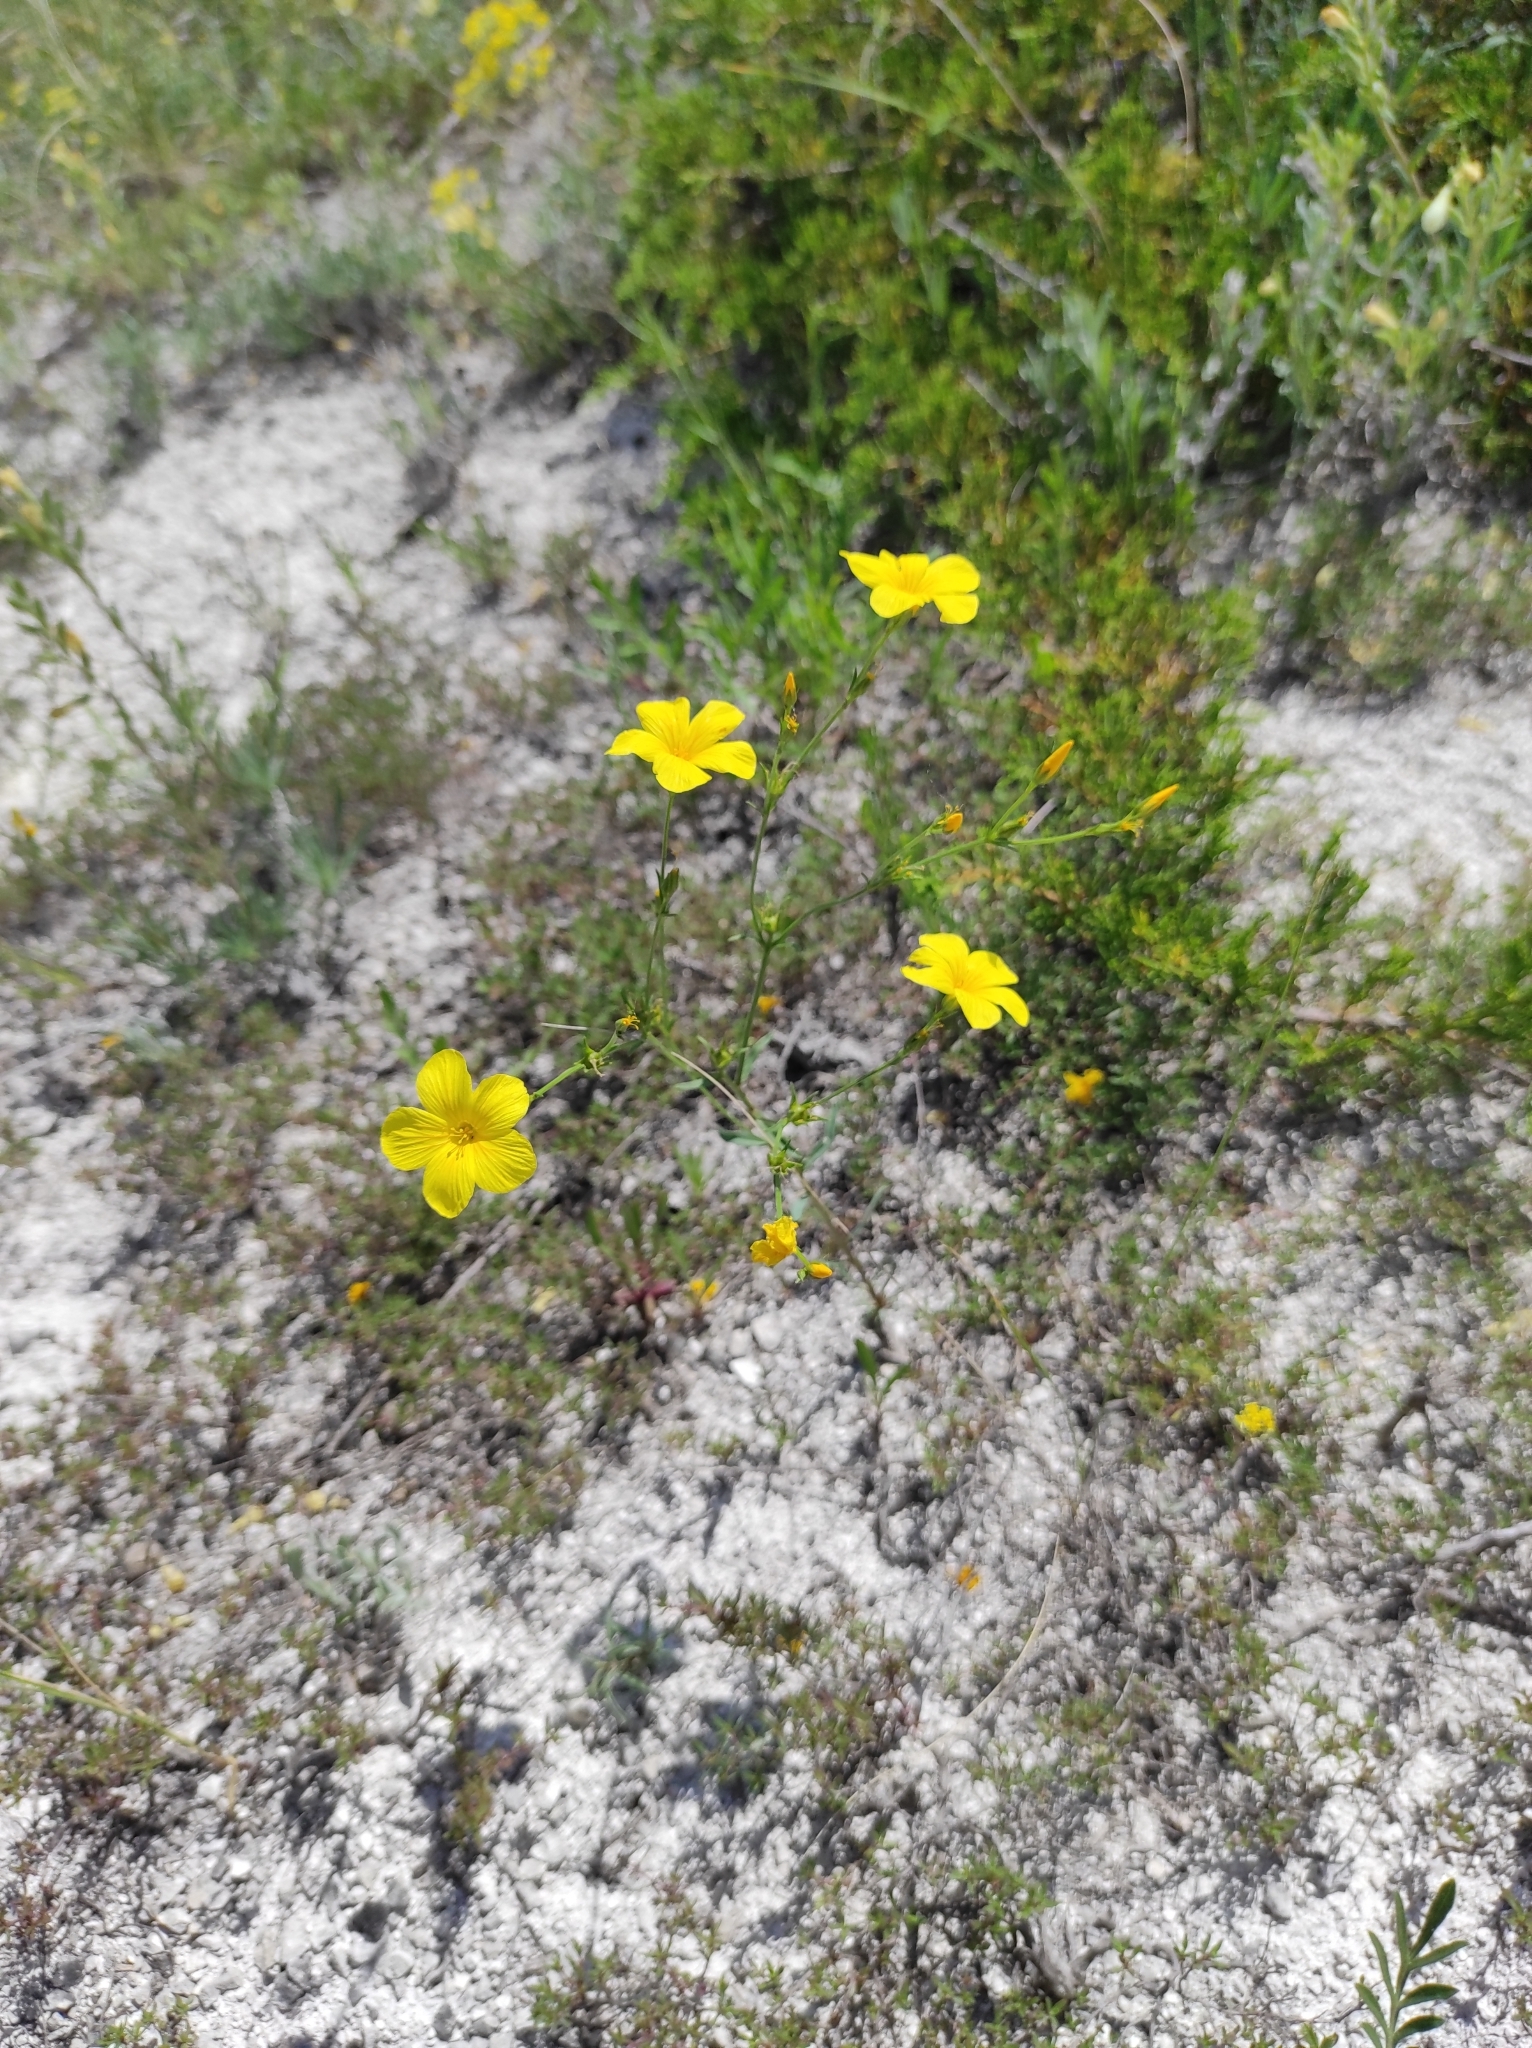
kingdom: Plantae
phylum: Tracheophyta
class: Magnoliopsida
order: Malpighiales
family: Linaceae
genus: Linum
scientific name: Linum ucranicum
